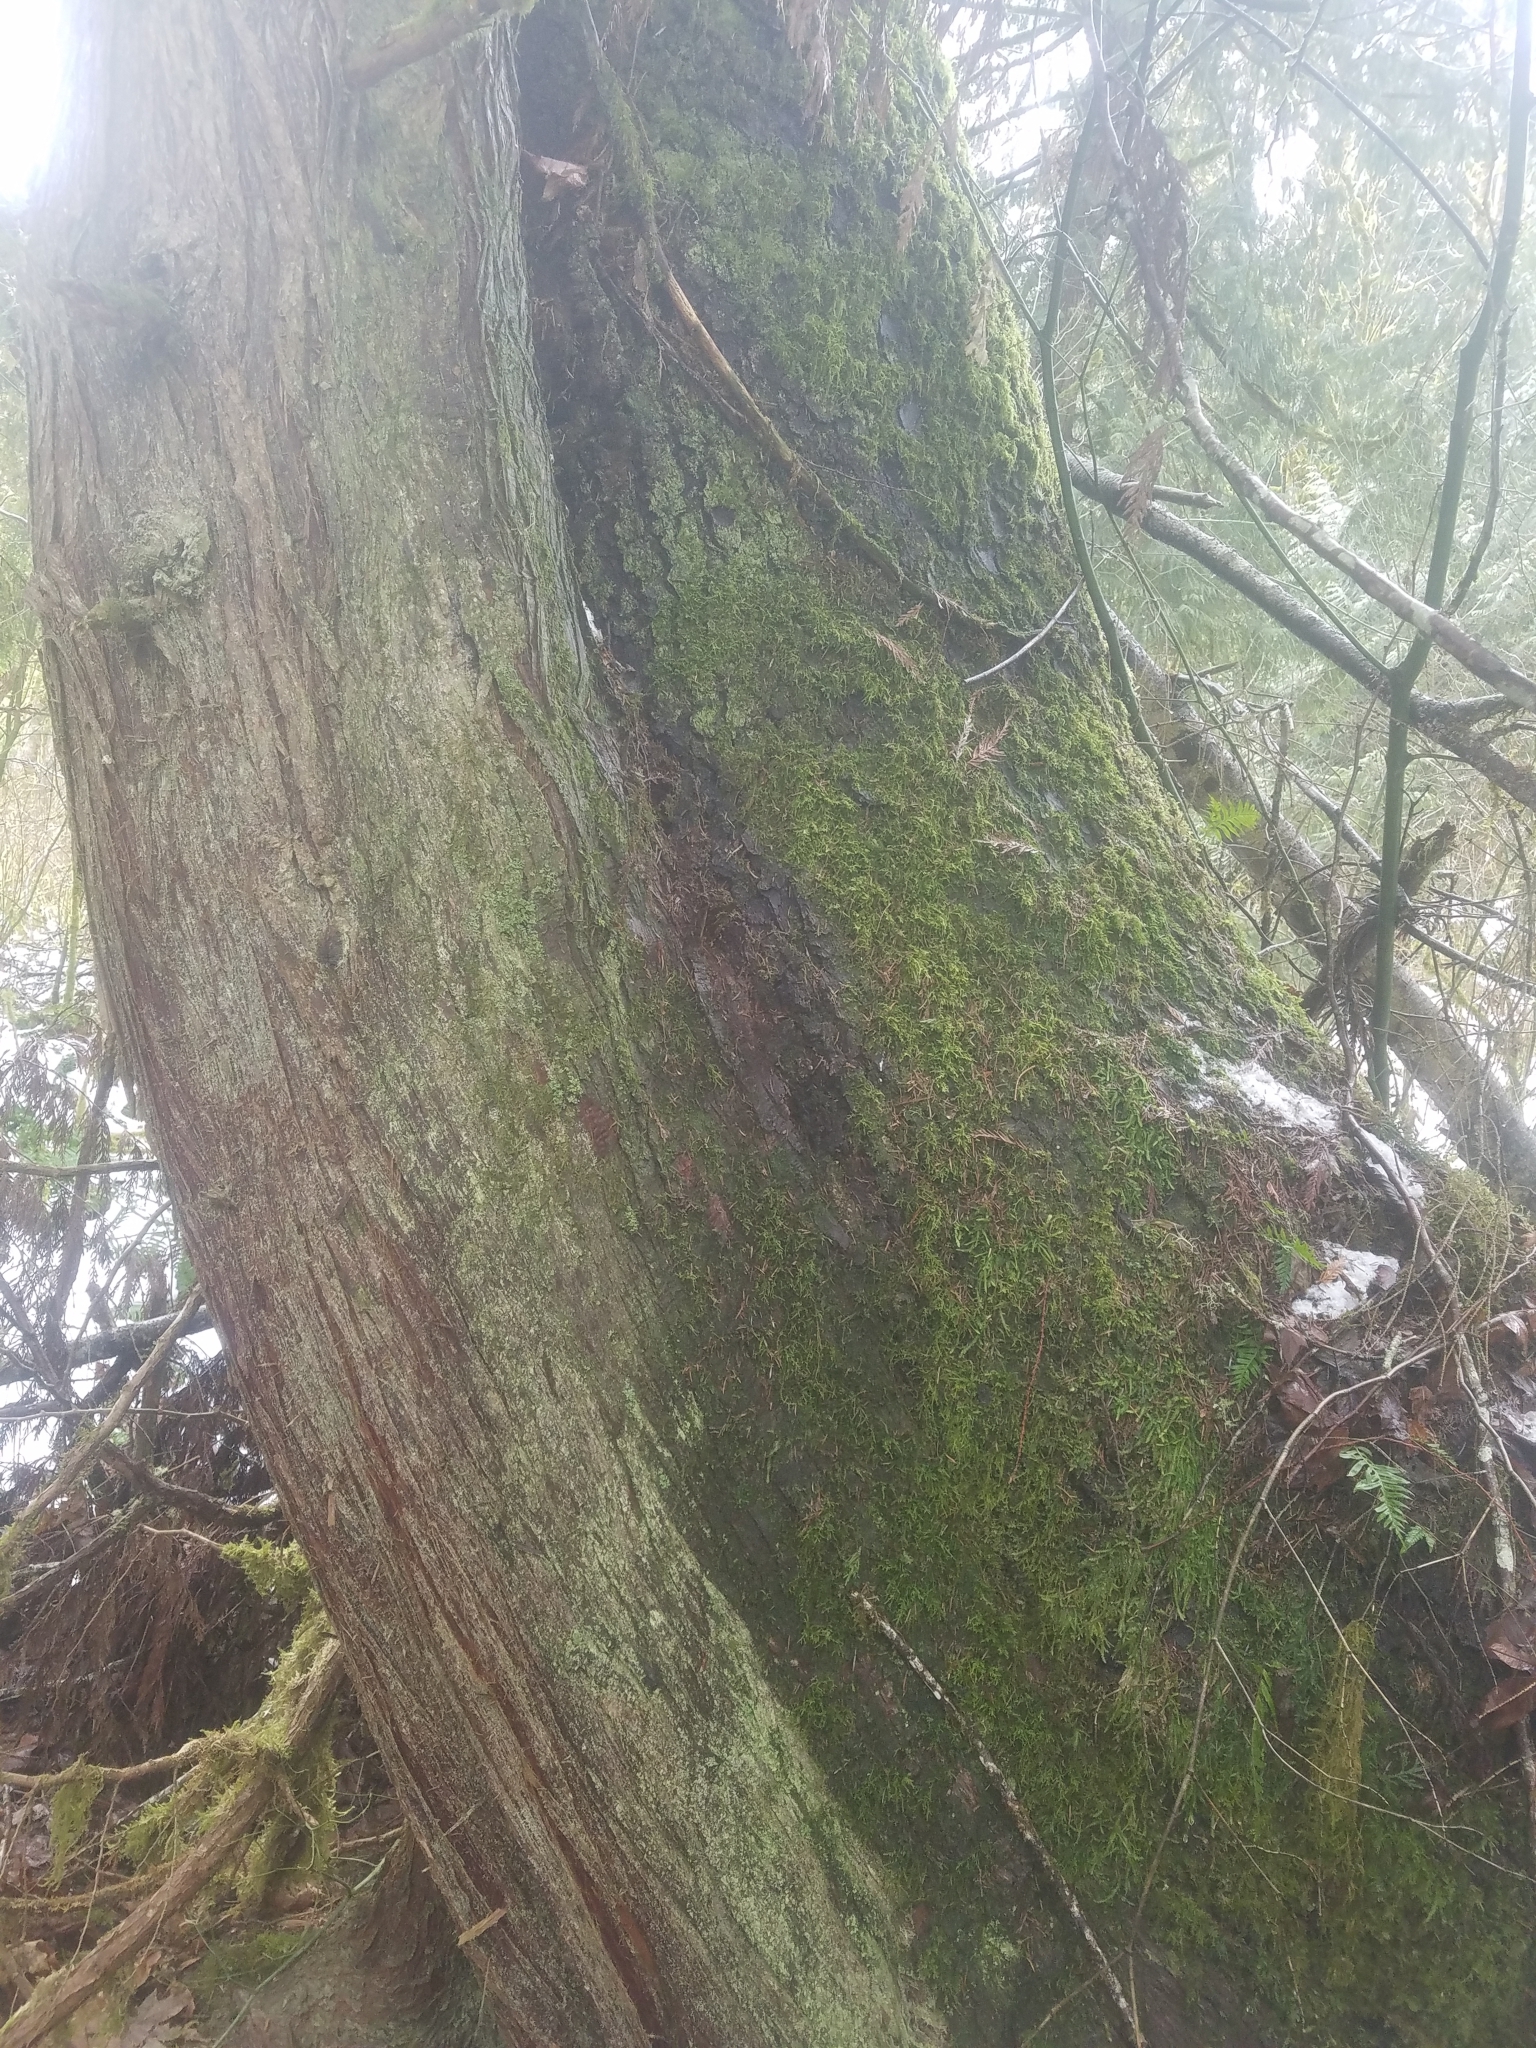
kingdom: Plantae
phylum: Tracheophyta
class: Pinopsida
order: Pinales
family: Pinaceae
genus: Tsuga
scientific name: Tsuga heterophylla
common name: Western hemlock
